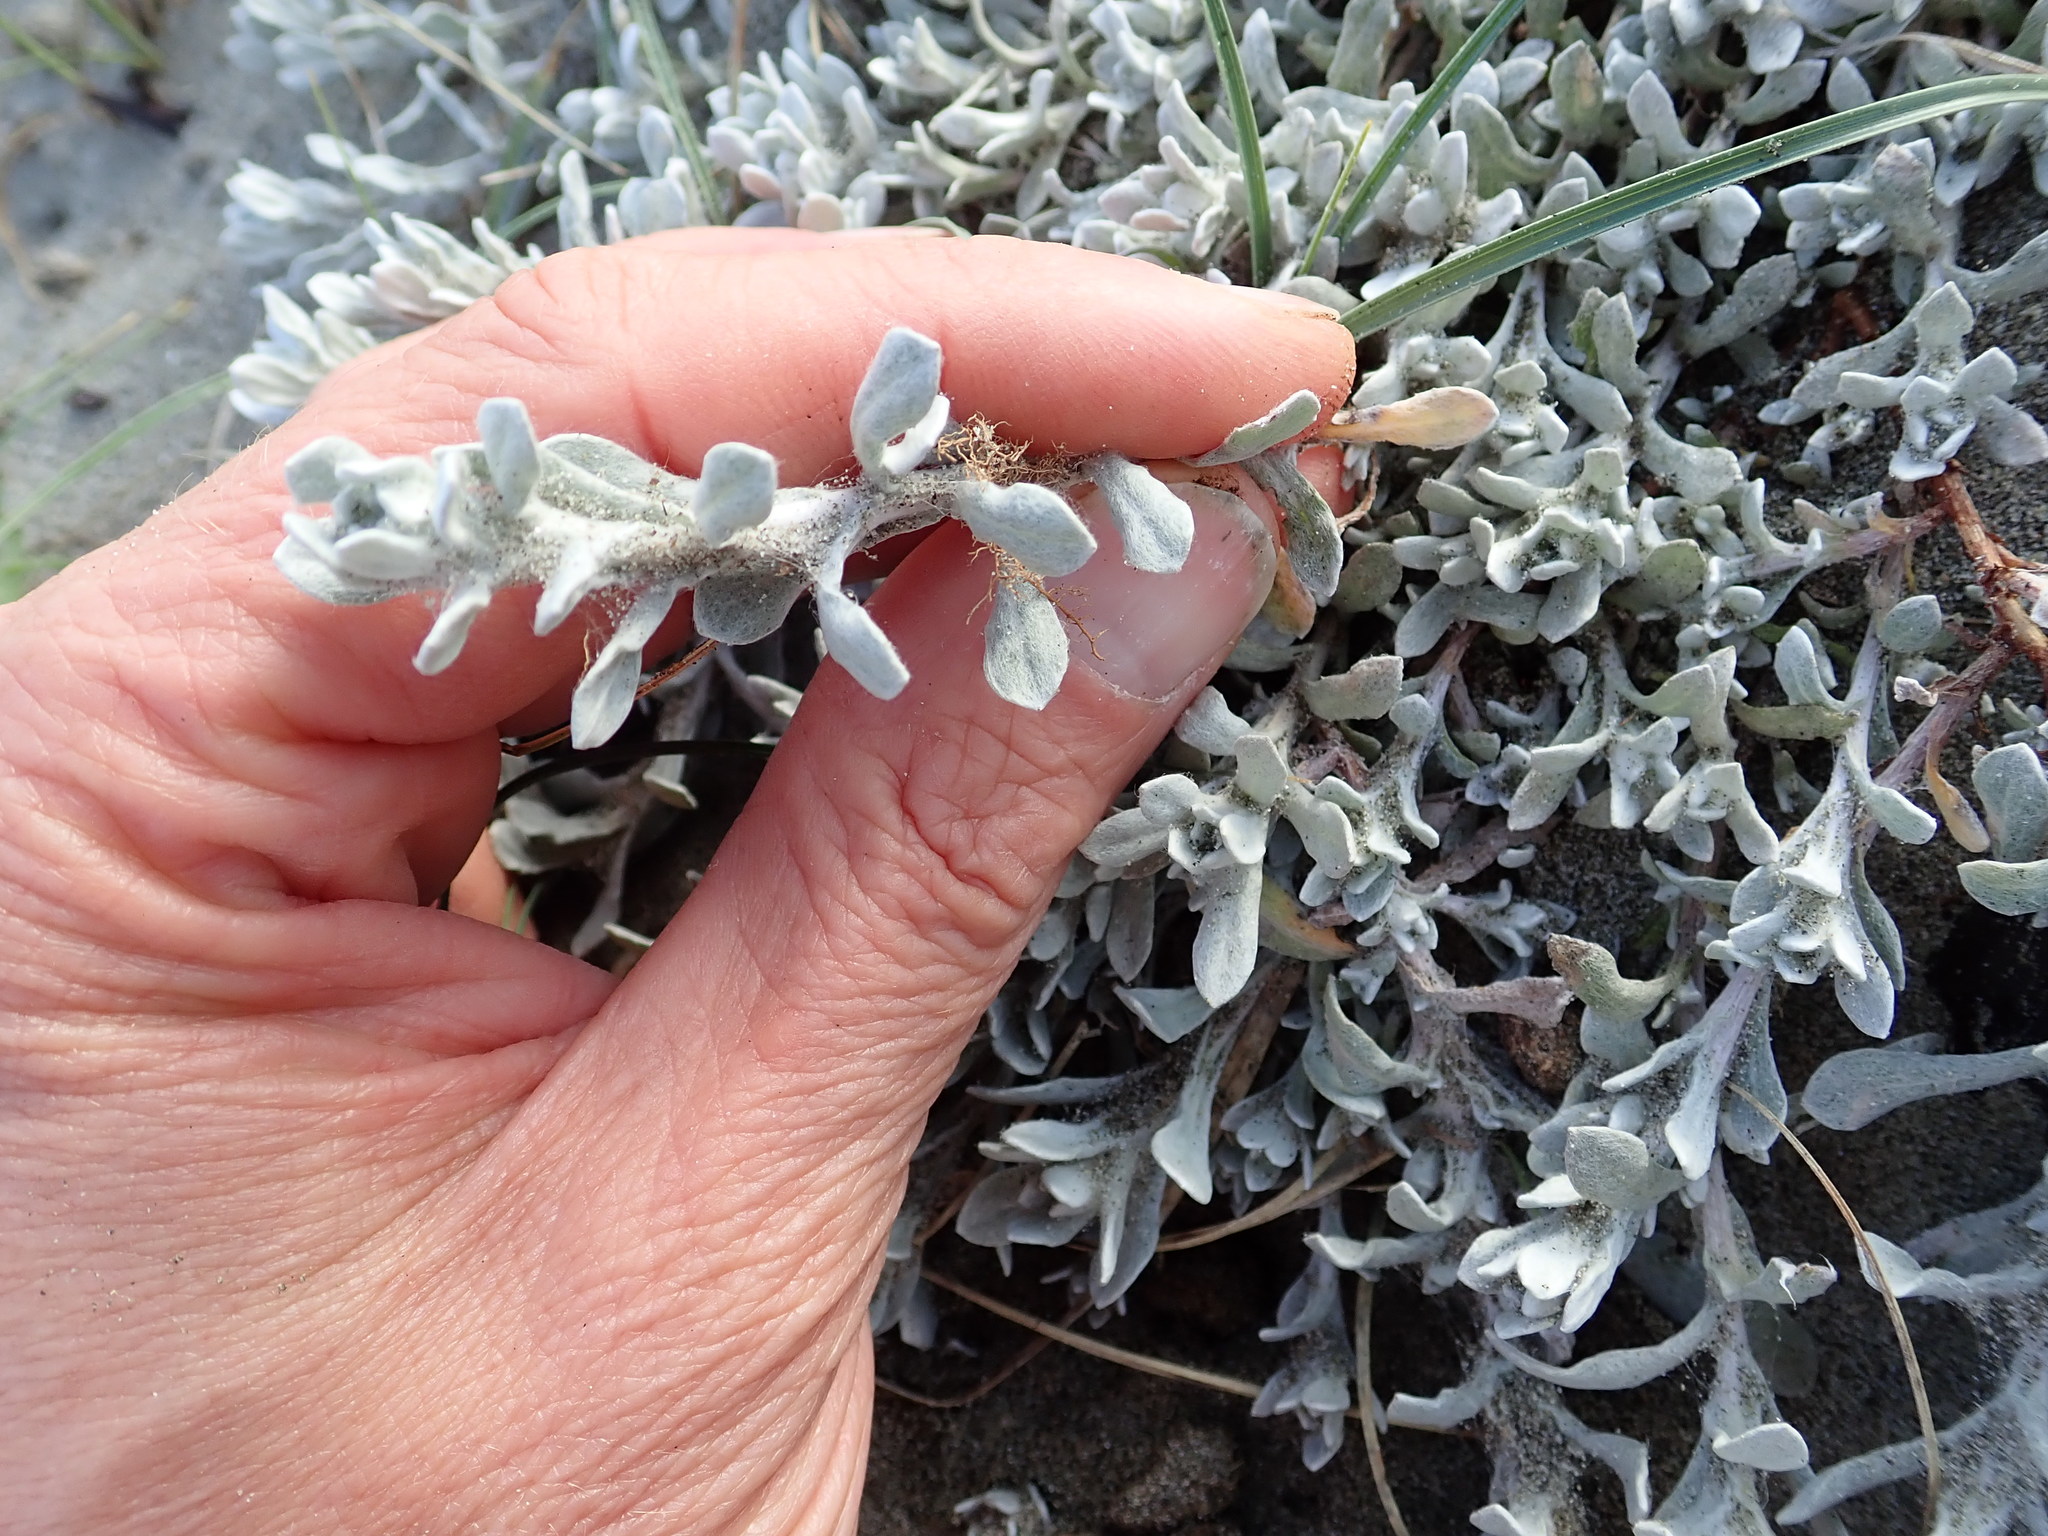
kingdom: Plantae
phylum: Tracheophyta
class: Magnoliopsida
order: Asterales
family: Asteraceae
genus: Helichrysum
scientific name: Helichrysum luteoalbum
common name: Daisy
